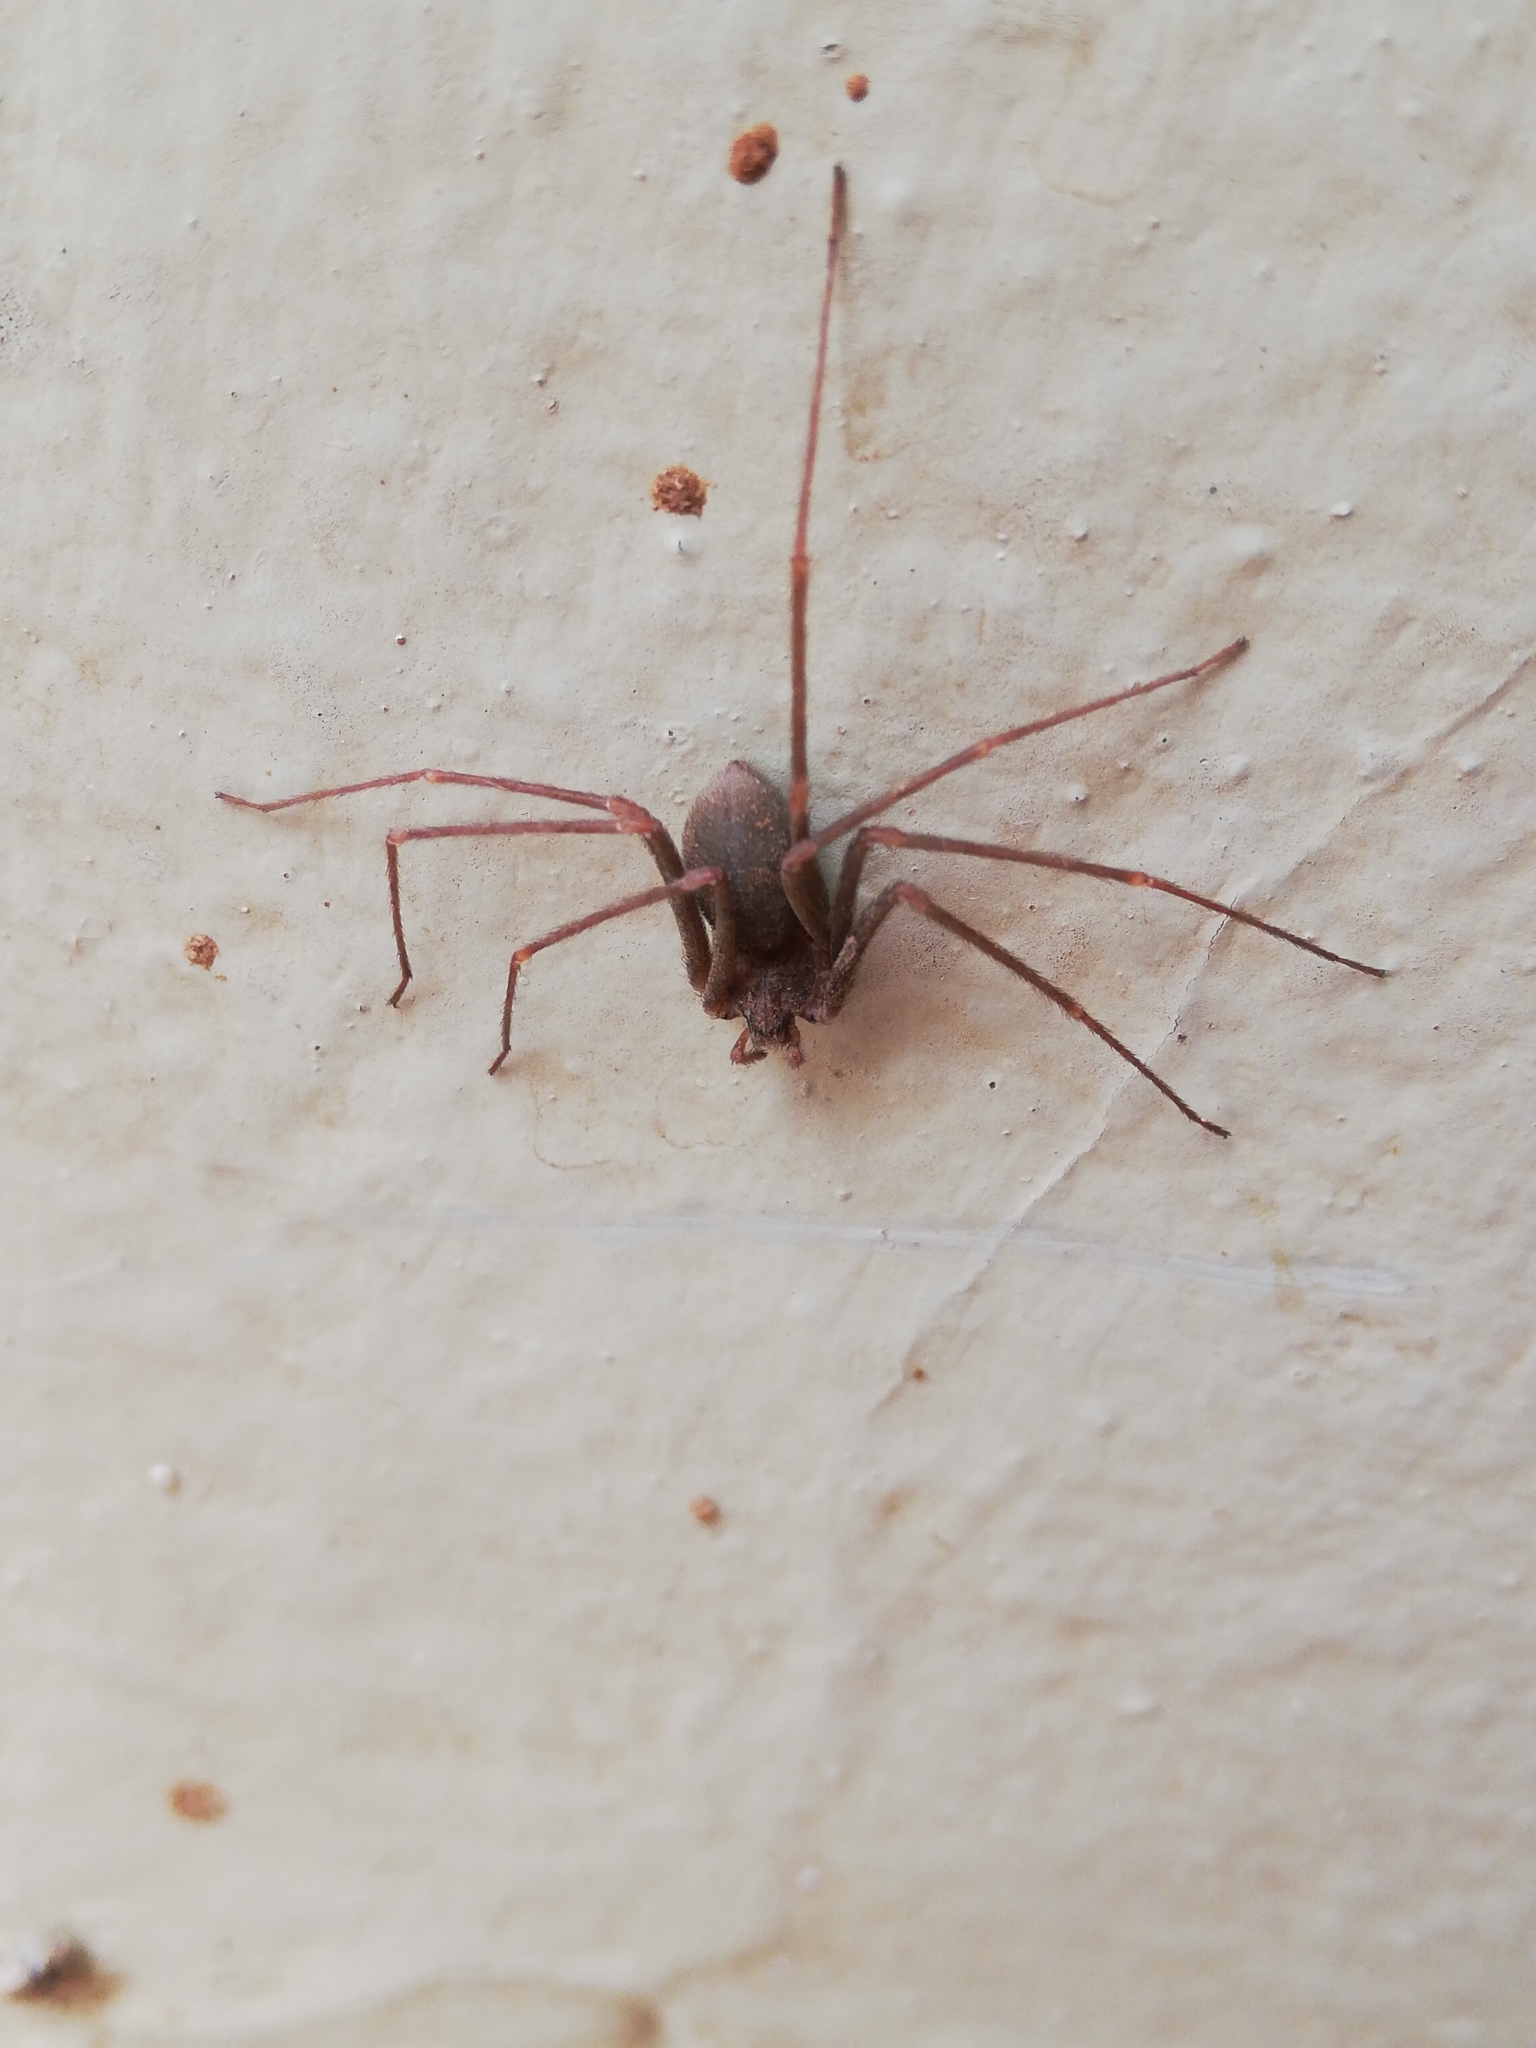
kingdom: Animalia
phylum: Arthropoda
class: Arachnida
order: Araneae
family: Sicariidae
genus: Loxosceles
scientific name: Loxosceles spinulosa
